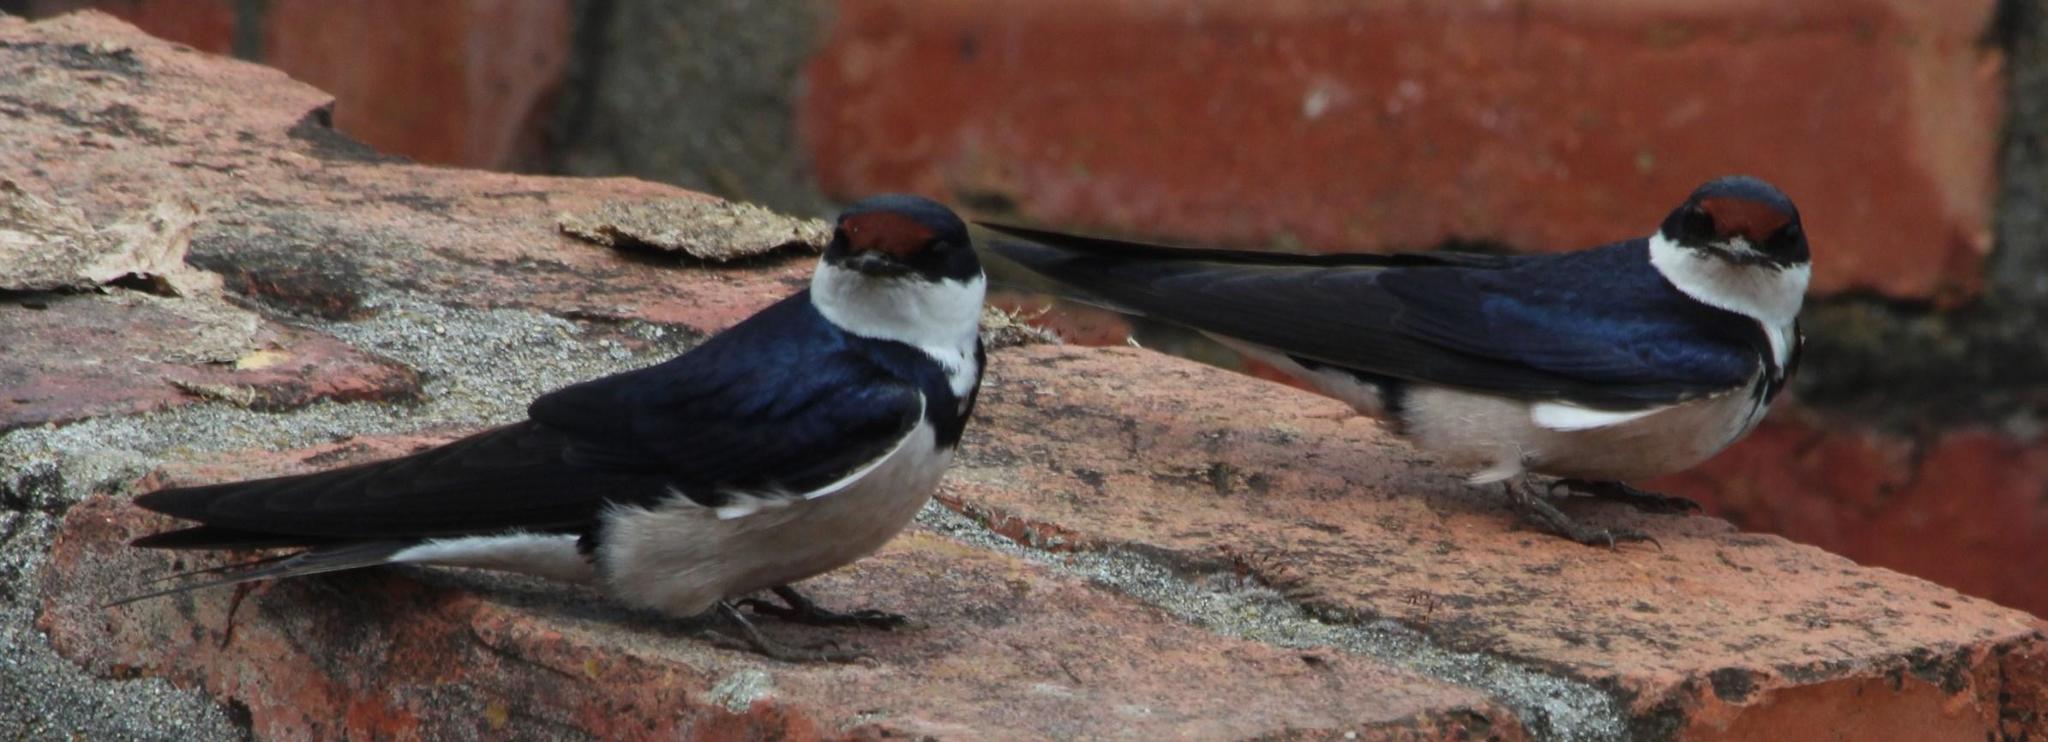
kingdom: Animalia
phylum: Chordata
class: Aves
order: Passeriformes
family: Hirundinidae
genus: Hirundo
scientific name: Hirundo albigularis
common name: White-throated swallow
